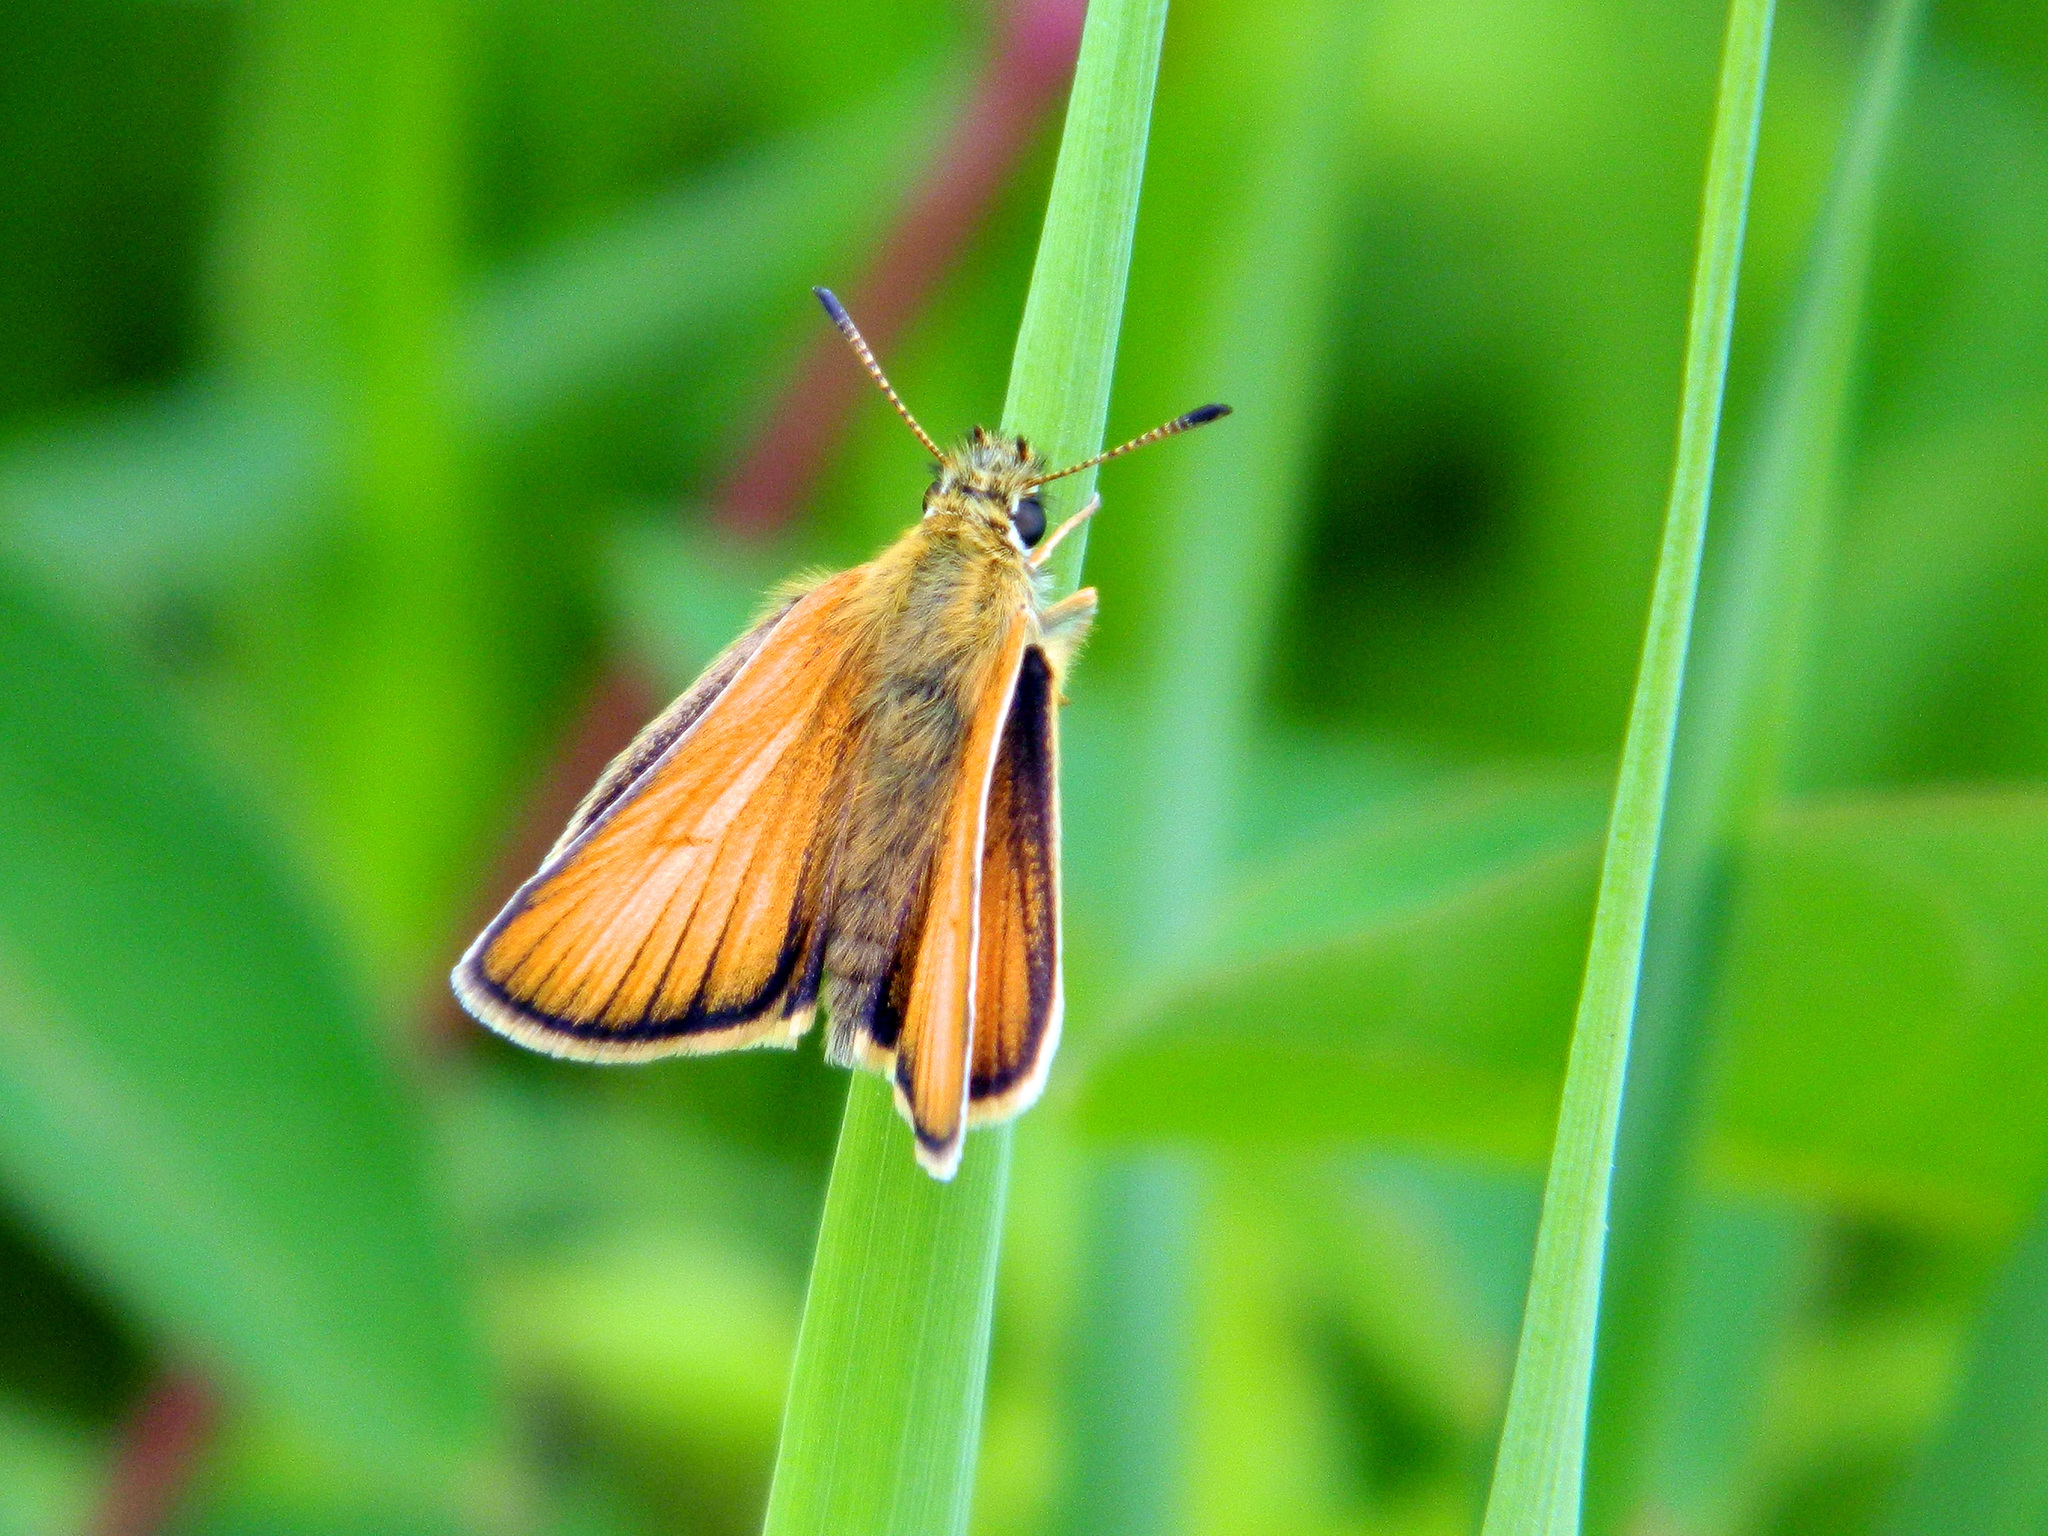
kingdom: Animalia
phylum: Arthropoda
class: Insecta
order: Lepidoptera
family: Hesperiidae
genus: Thymelicus
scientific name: Thymelicus lineola
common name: Essex skipper
